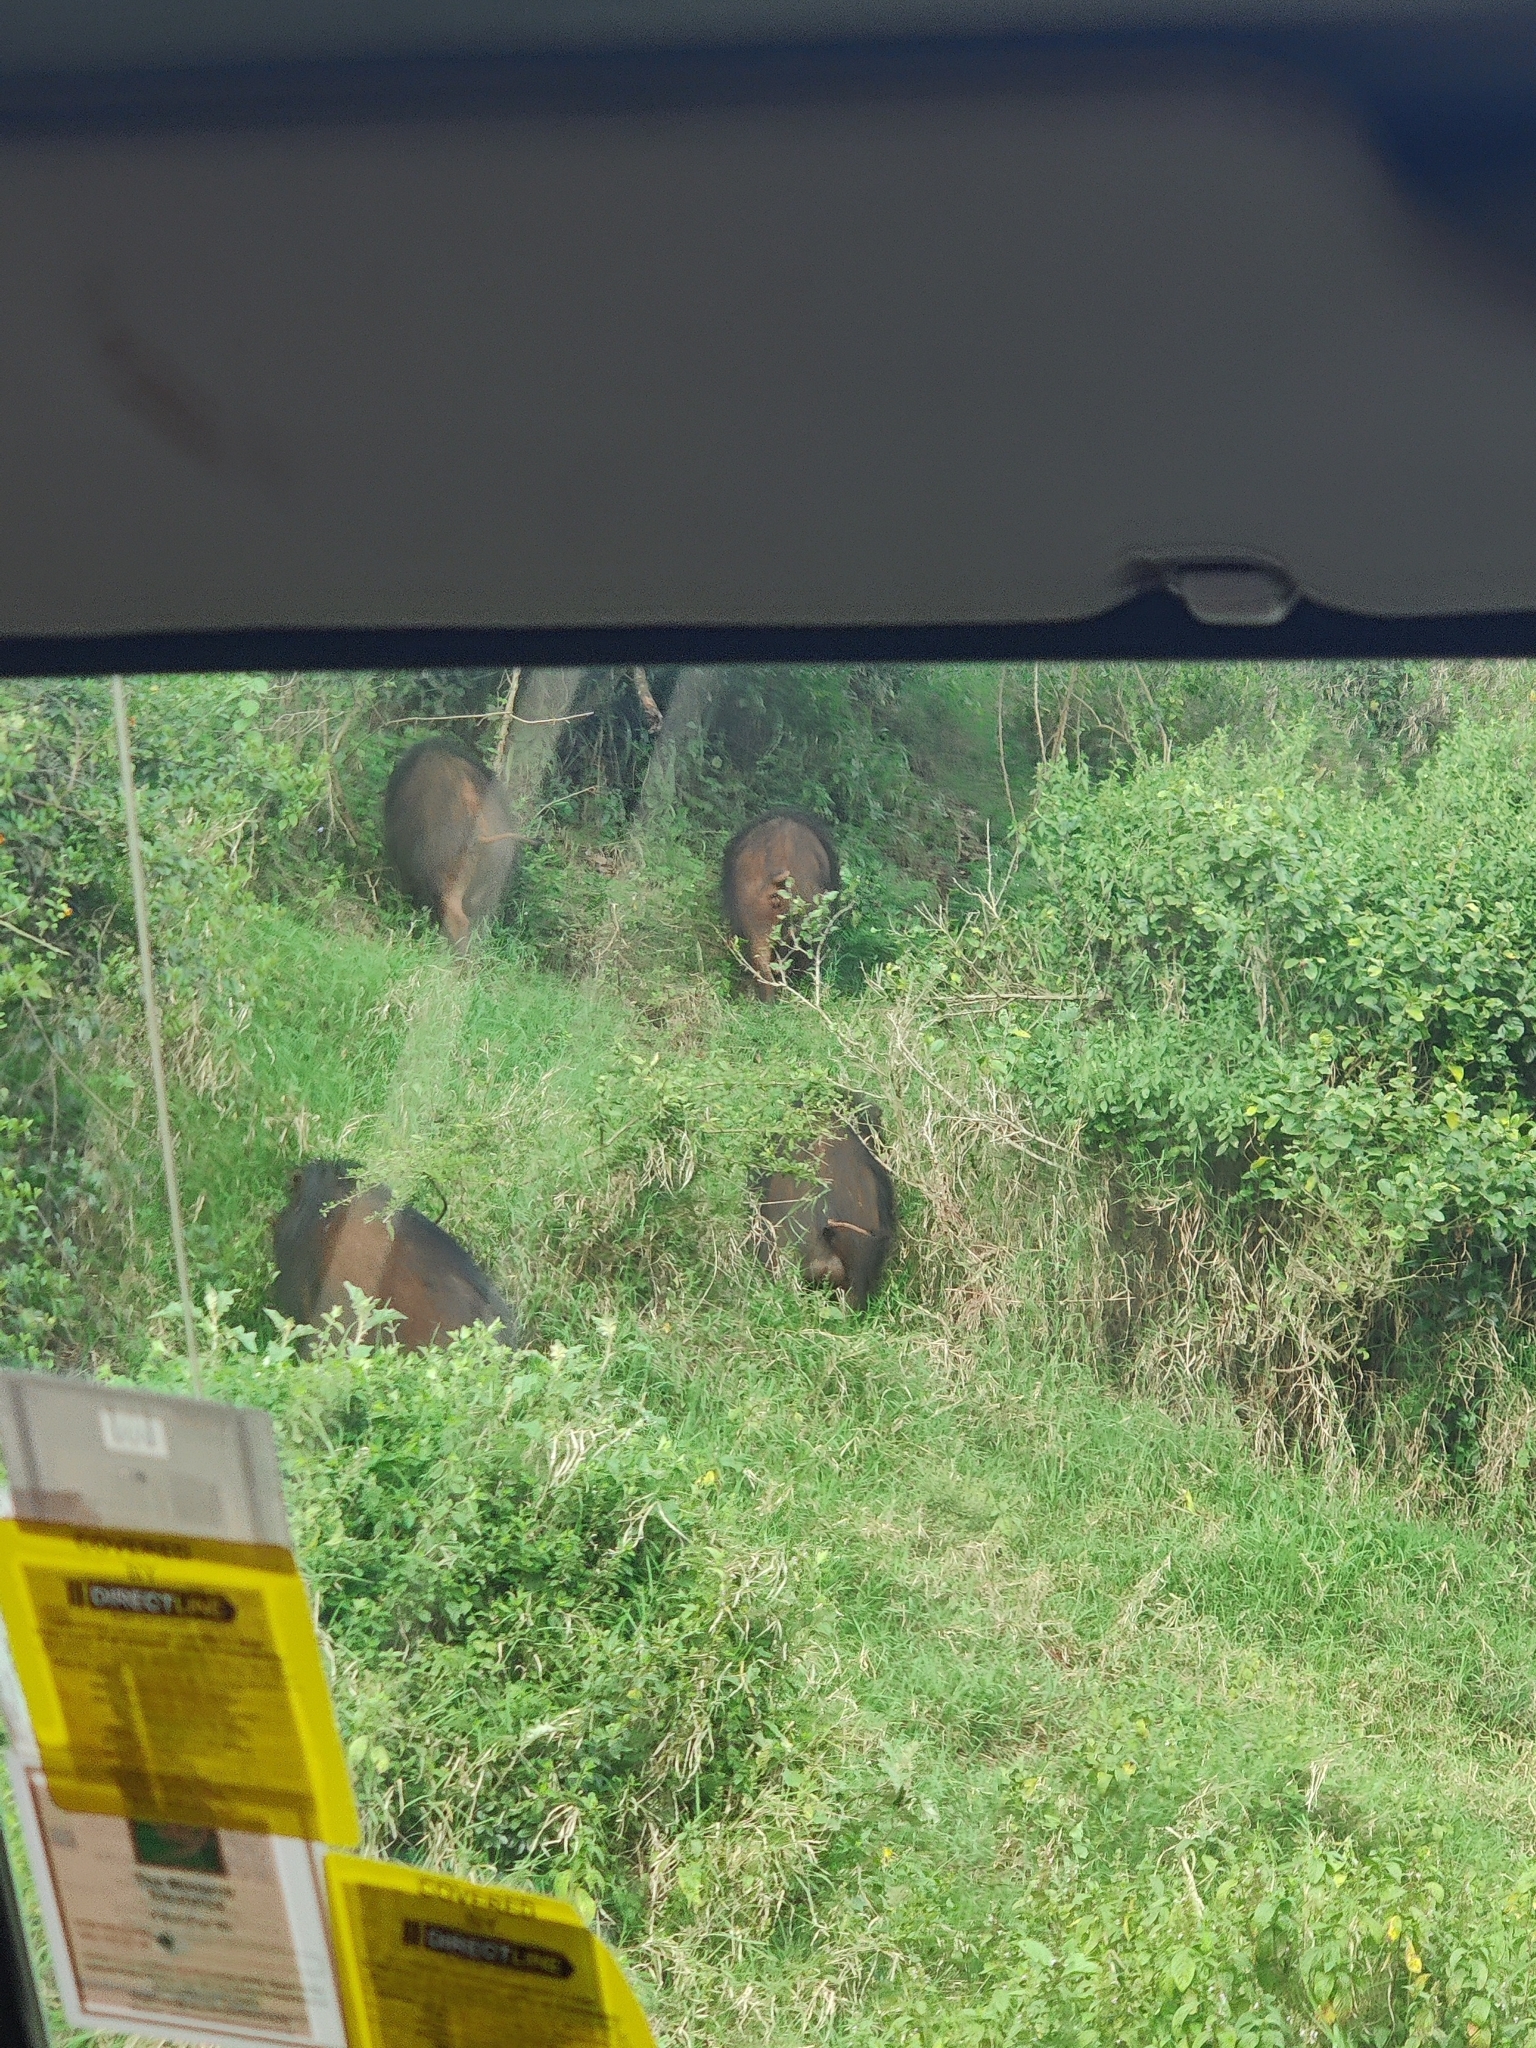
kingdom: Animalia
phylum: Chordata
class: Mammalia
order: Artiodactyla
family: Suidae
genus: Hylochoerus
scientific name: Hylochoerus meinertzhageni
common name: Giant forest hog
